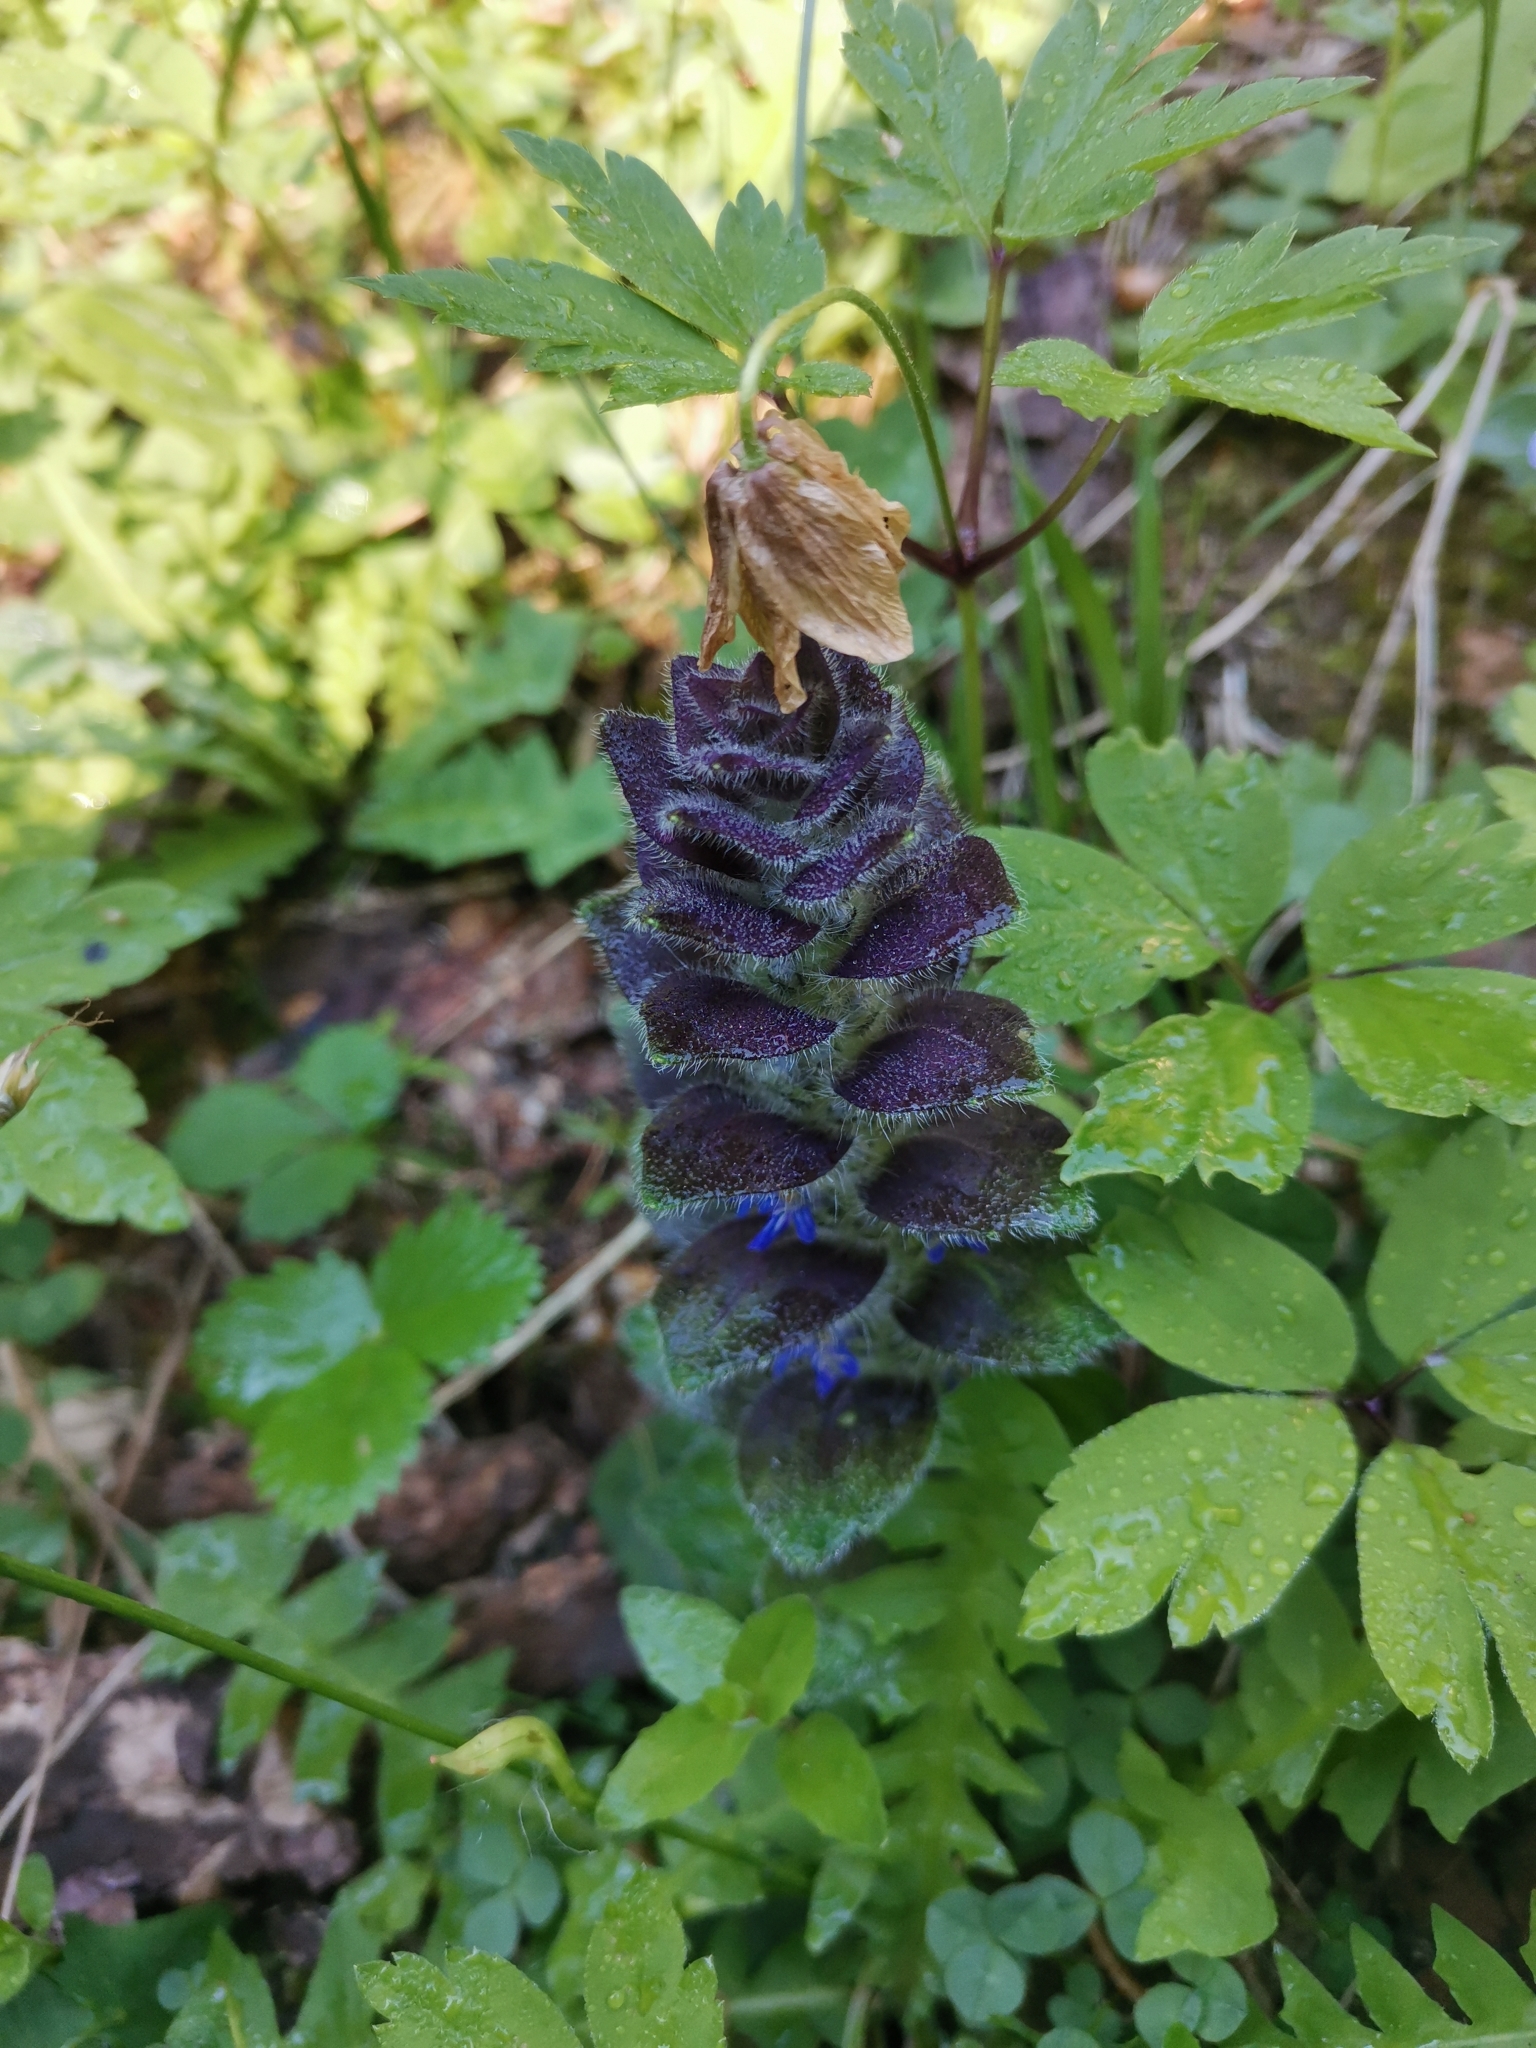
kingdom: Plantae
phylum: Tracheophyta
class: Magnoliopsida
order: Lamiales
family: Lamiaceae
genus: Ajuga
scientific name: Ajuga pyramidalis
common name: Pyramid bugle
